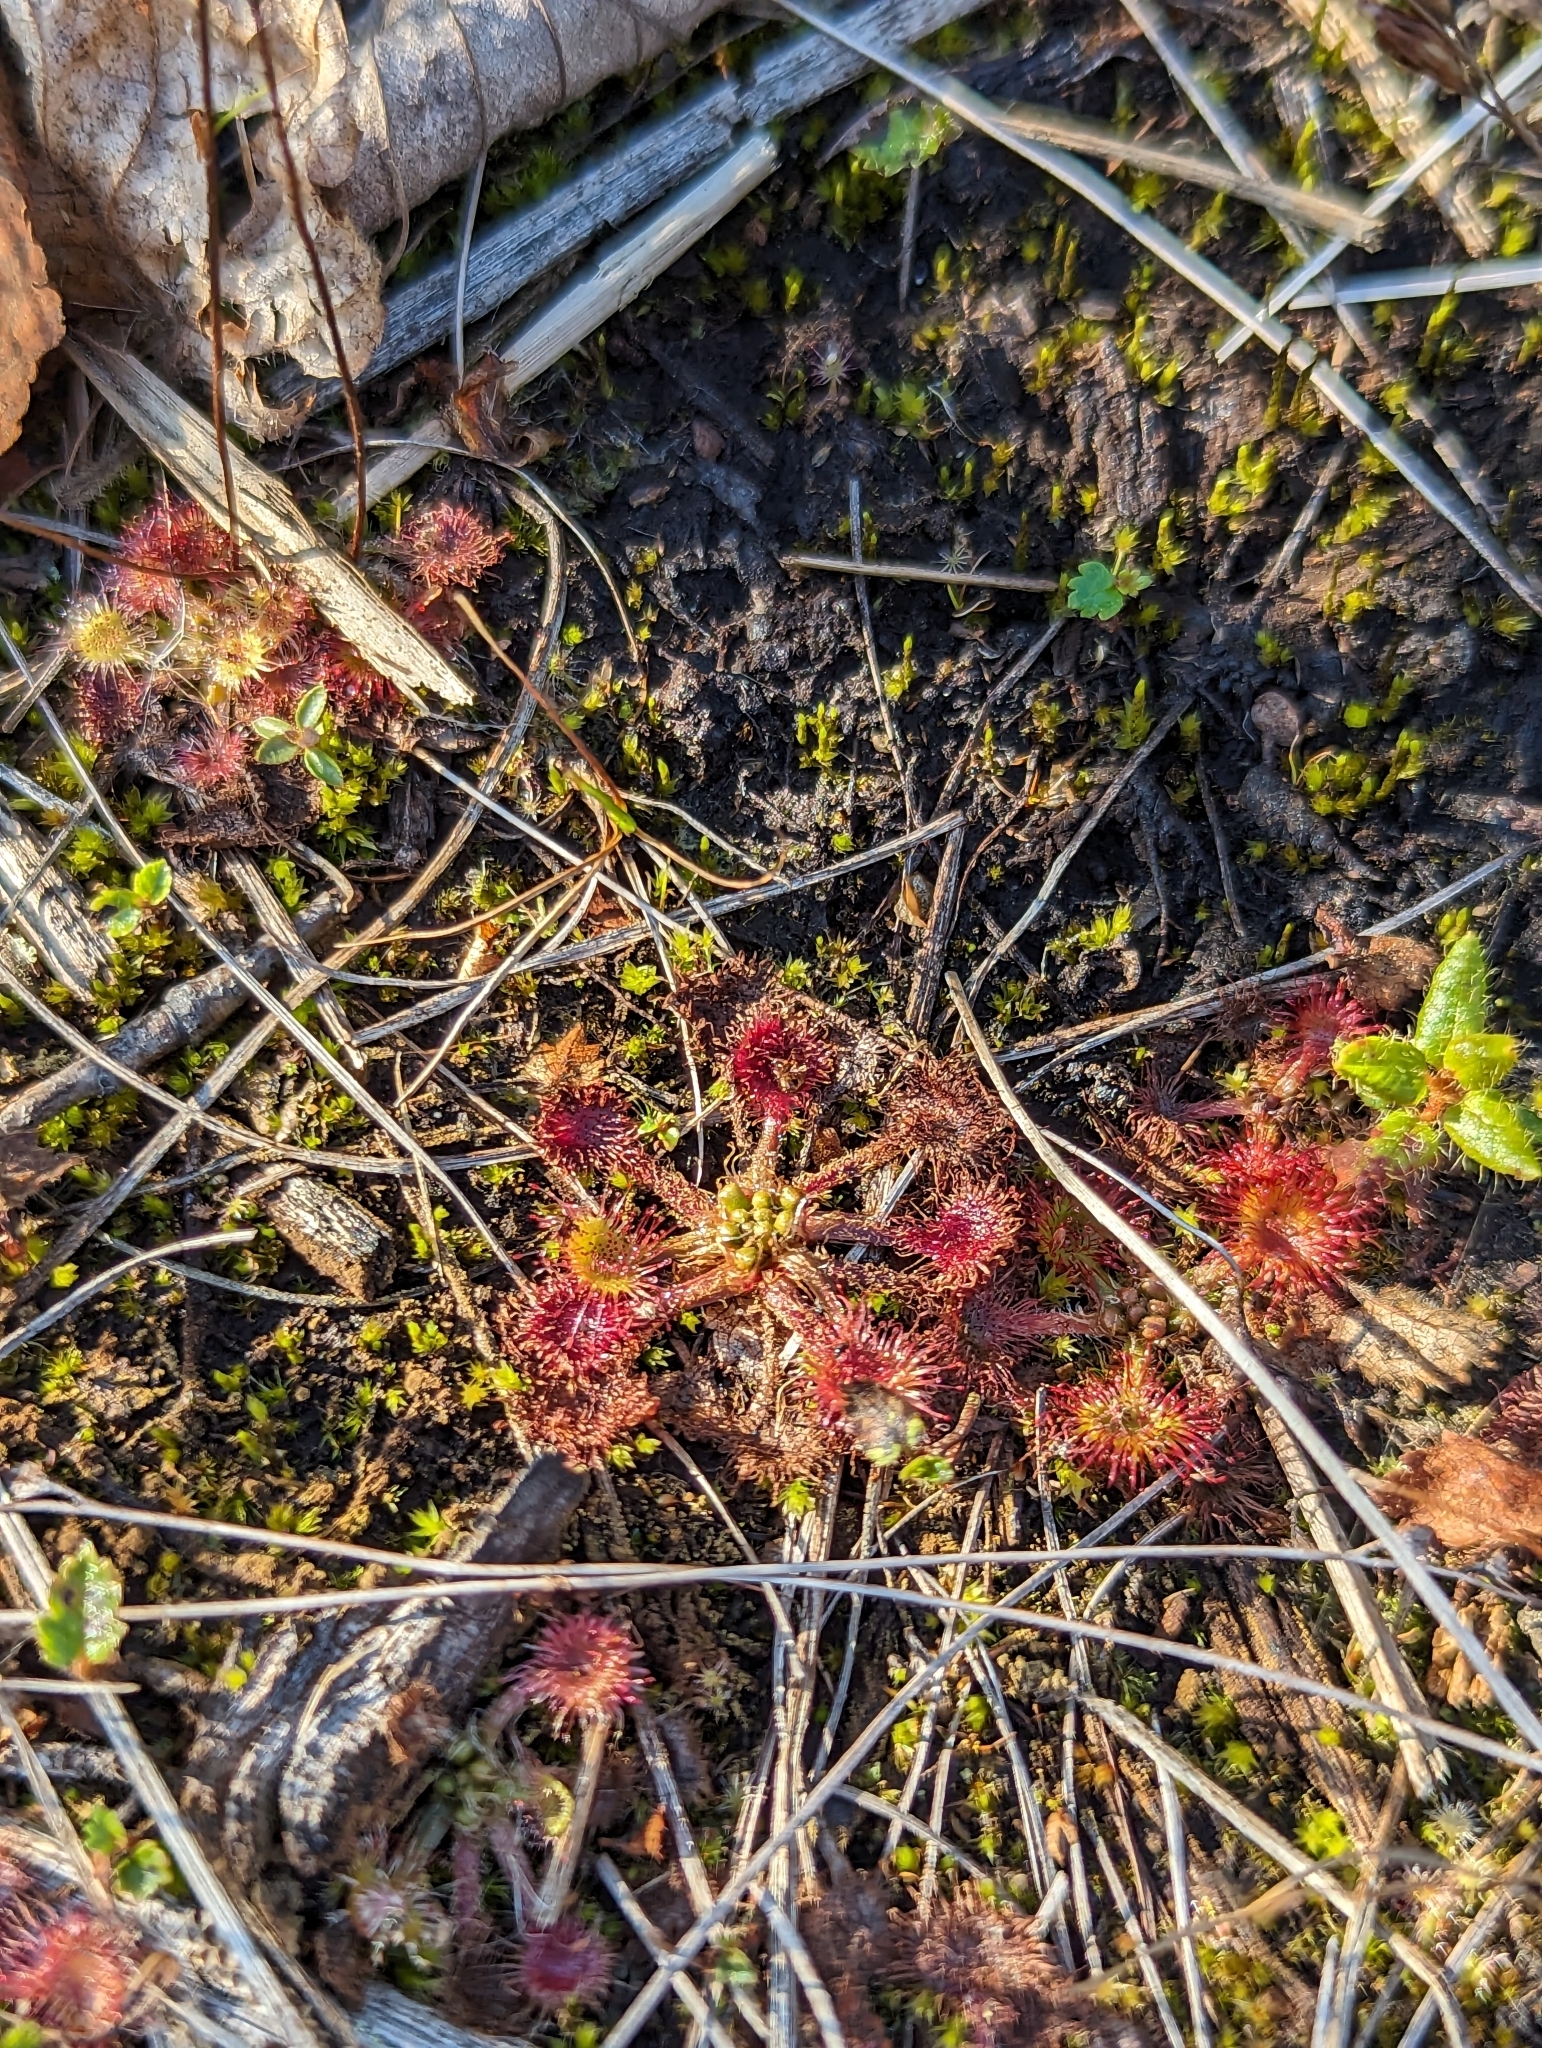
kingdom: Plantae
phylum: Tracheophyta
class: Magnoliopsida
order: Caryophyllales
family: Droseraceae
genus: Drosera
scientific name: Drosera rotundifolia
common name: Round-leaved sundew
